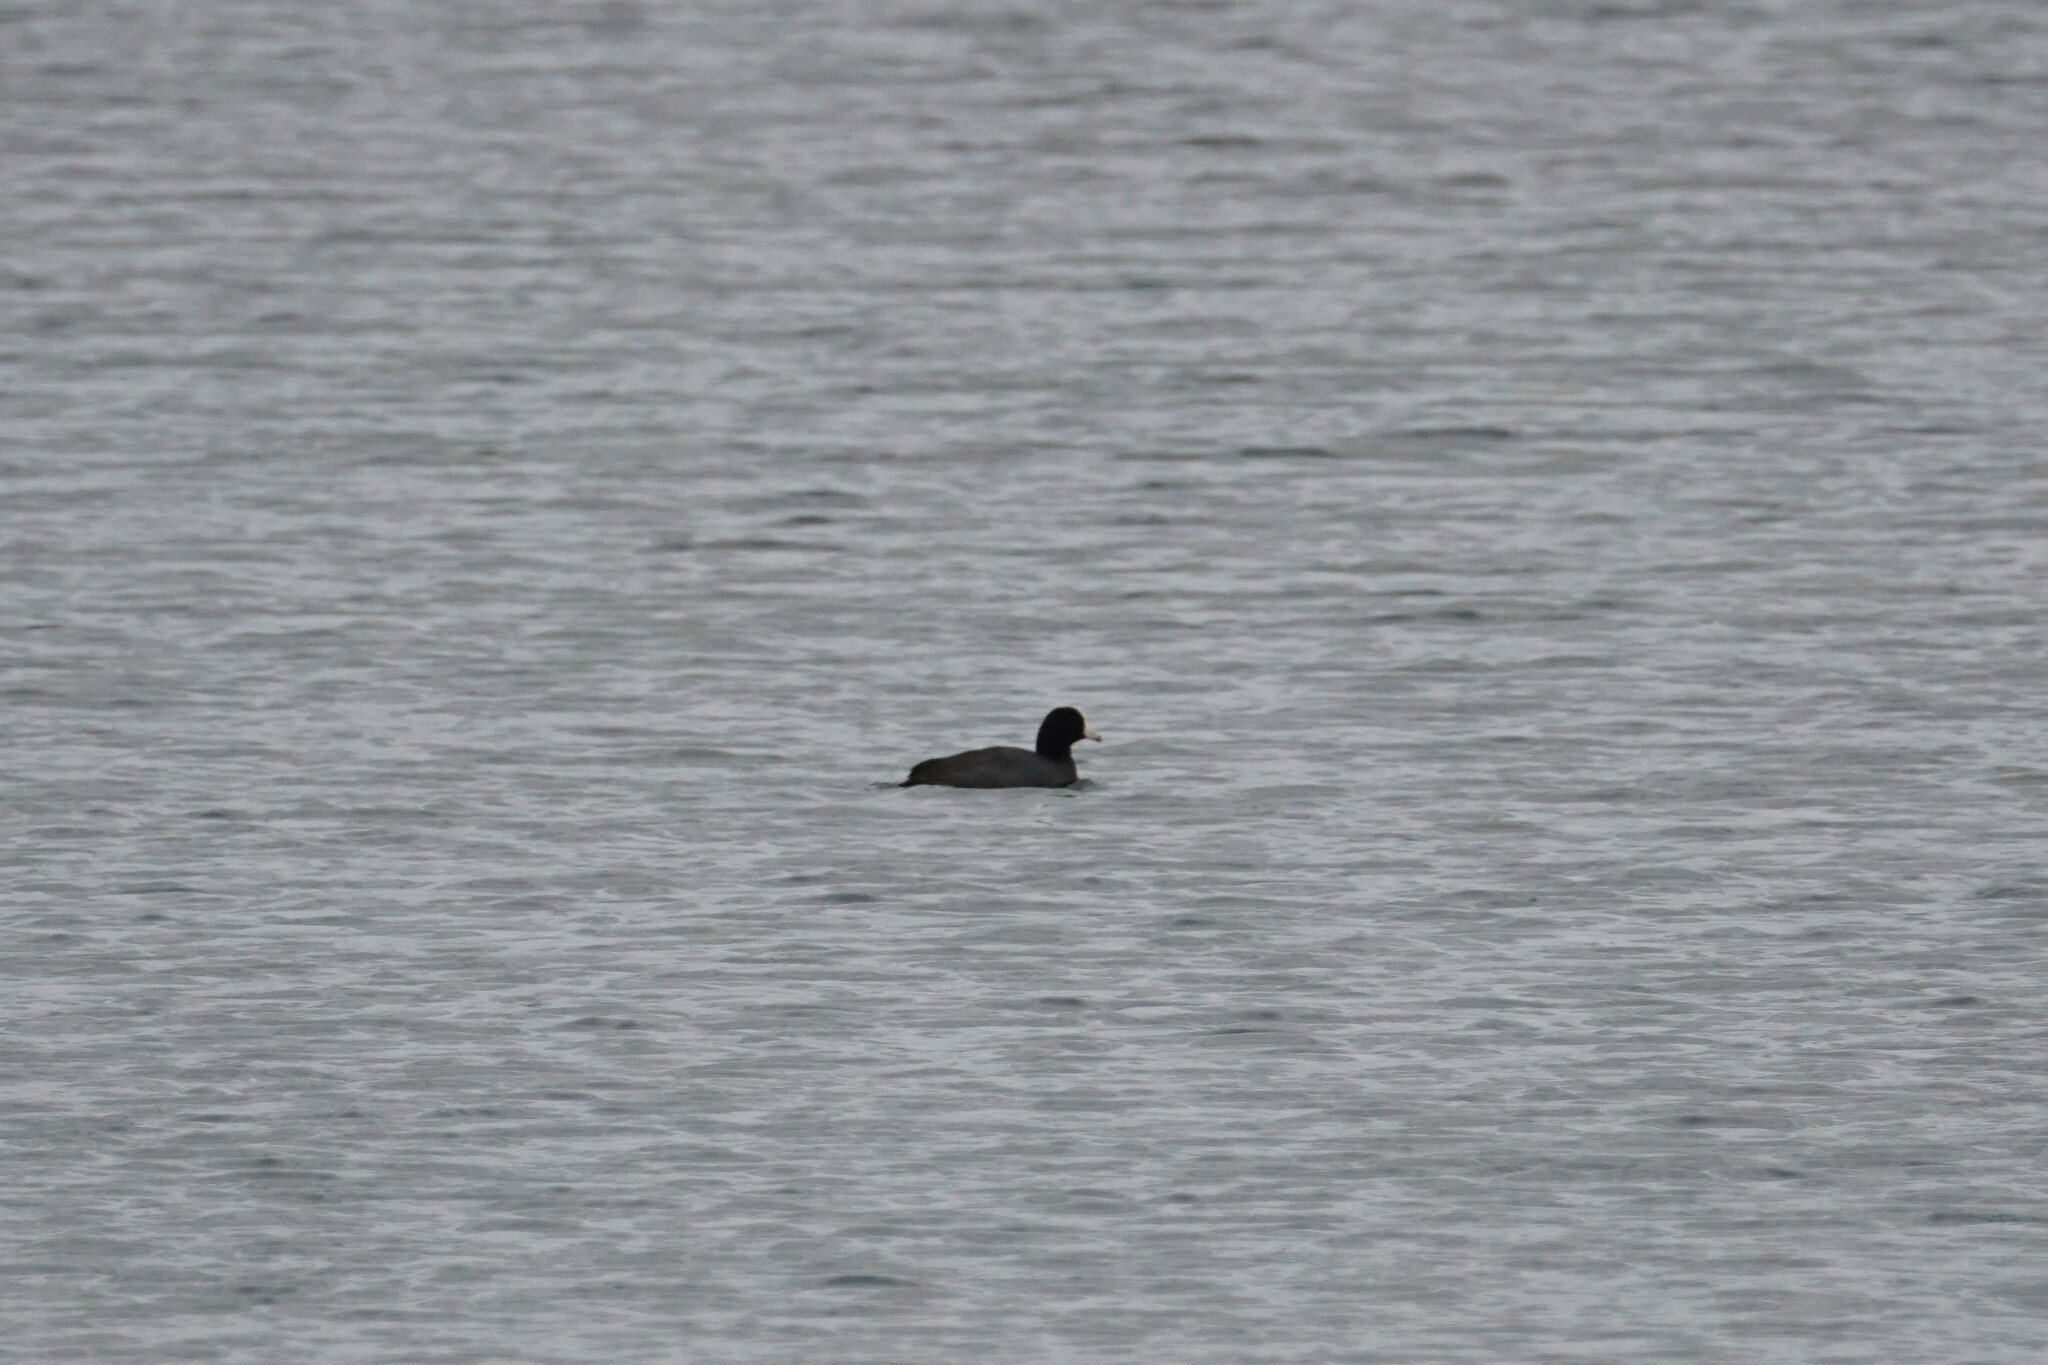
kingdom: Animalia
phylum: Chordata
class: Aves
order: Gruiformes
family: Rallidae
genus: Fulica
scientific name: Fulica americana
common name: American coot
